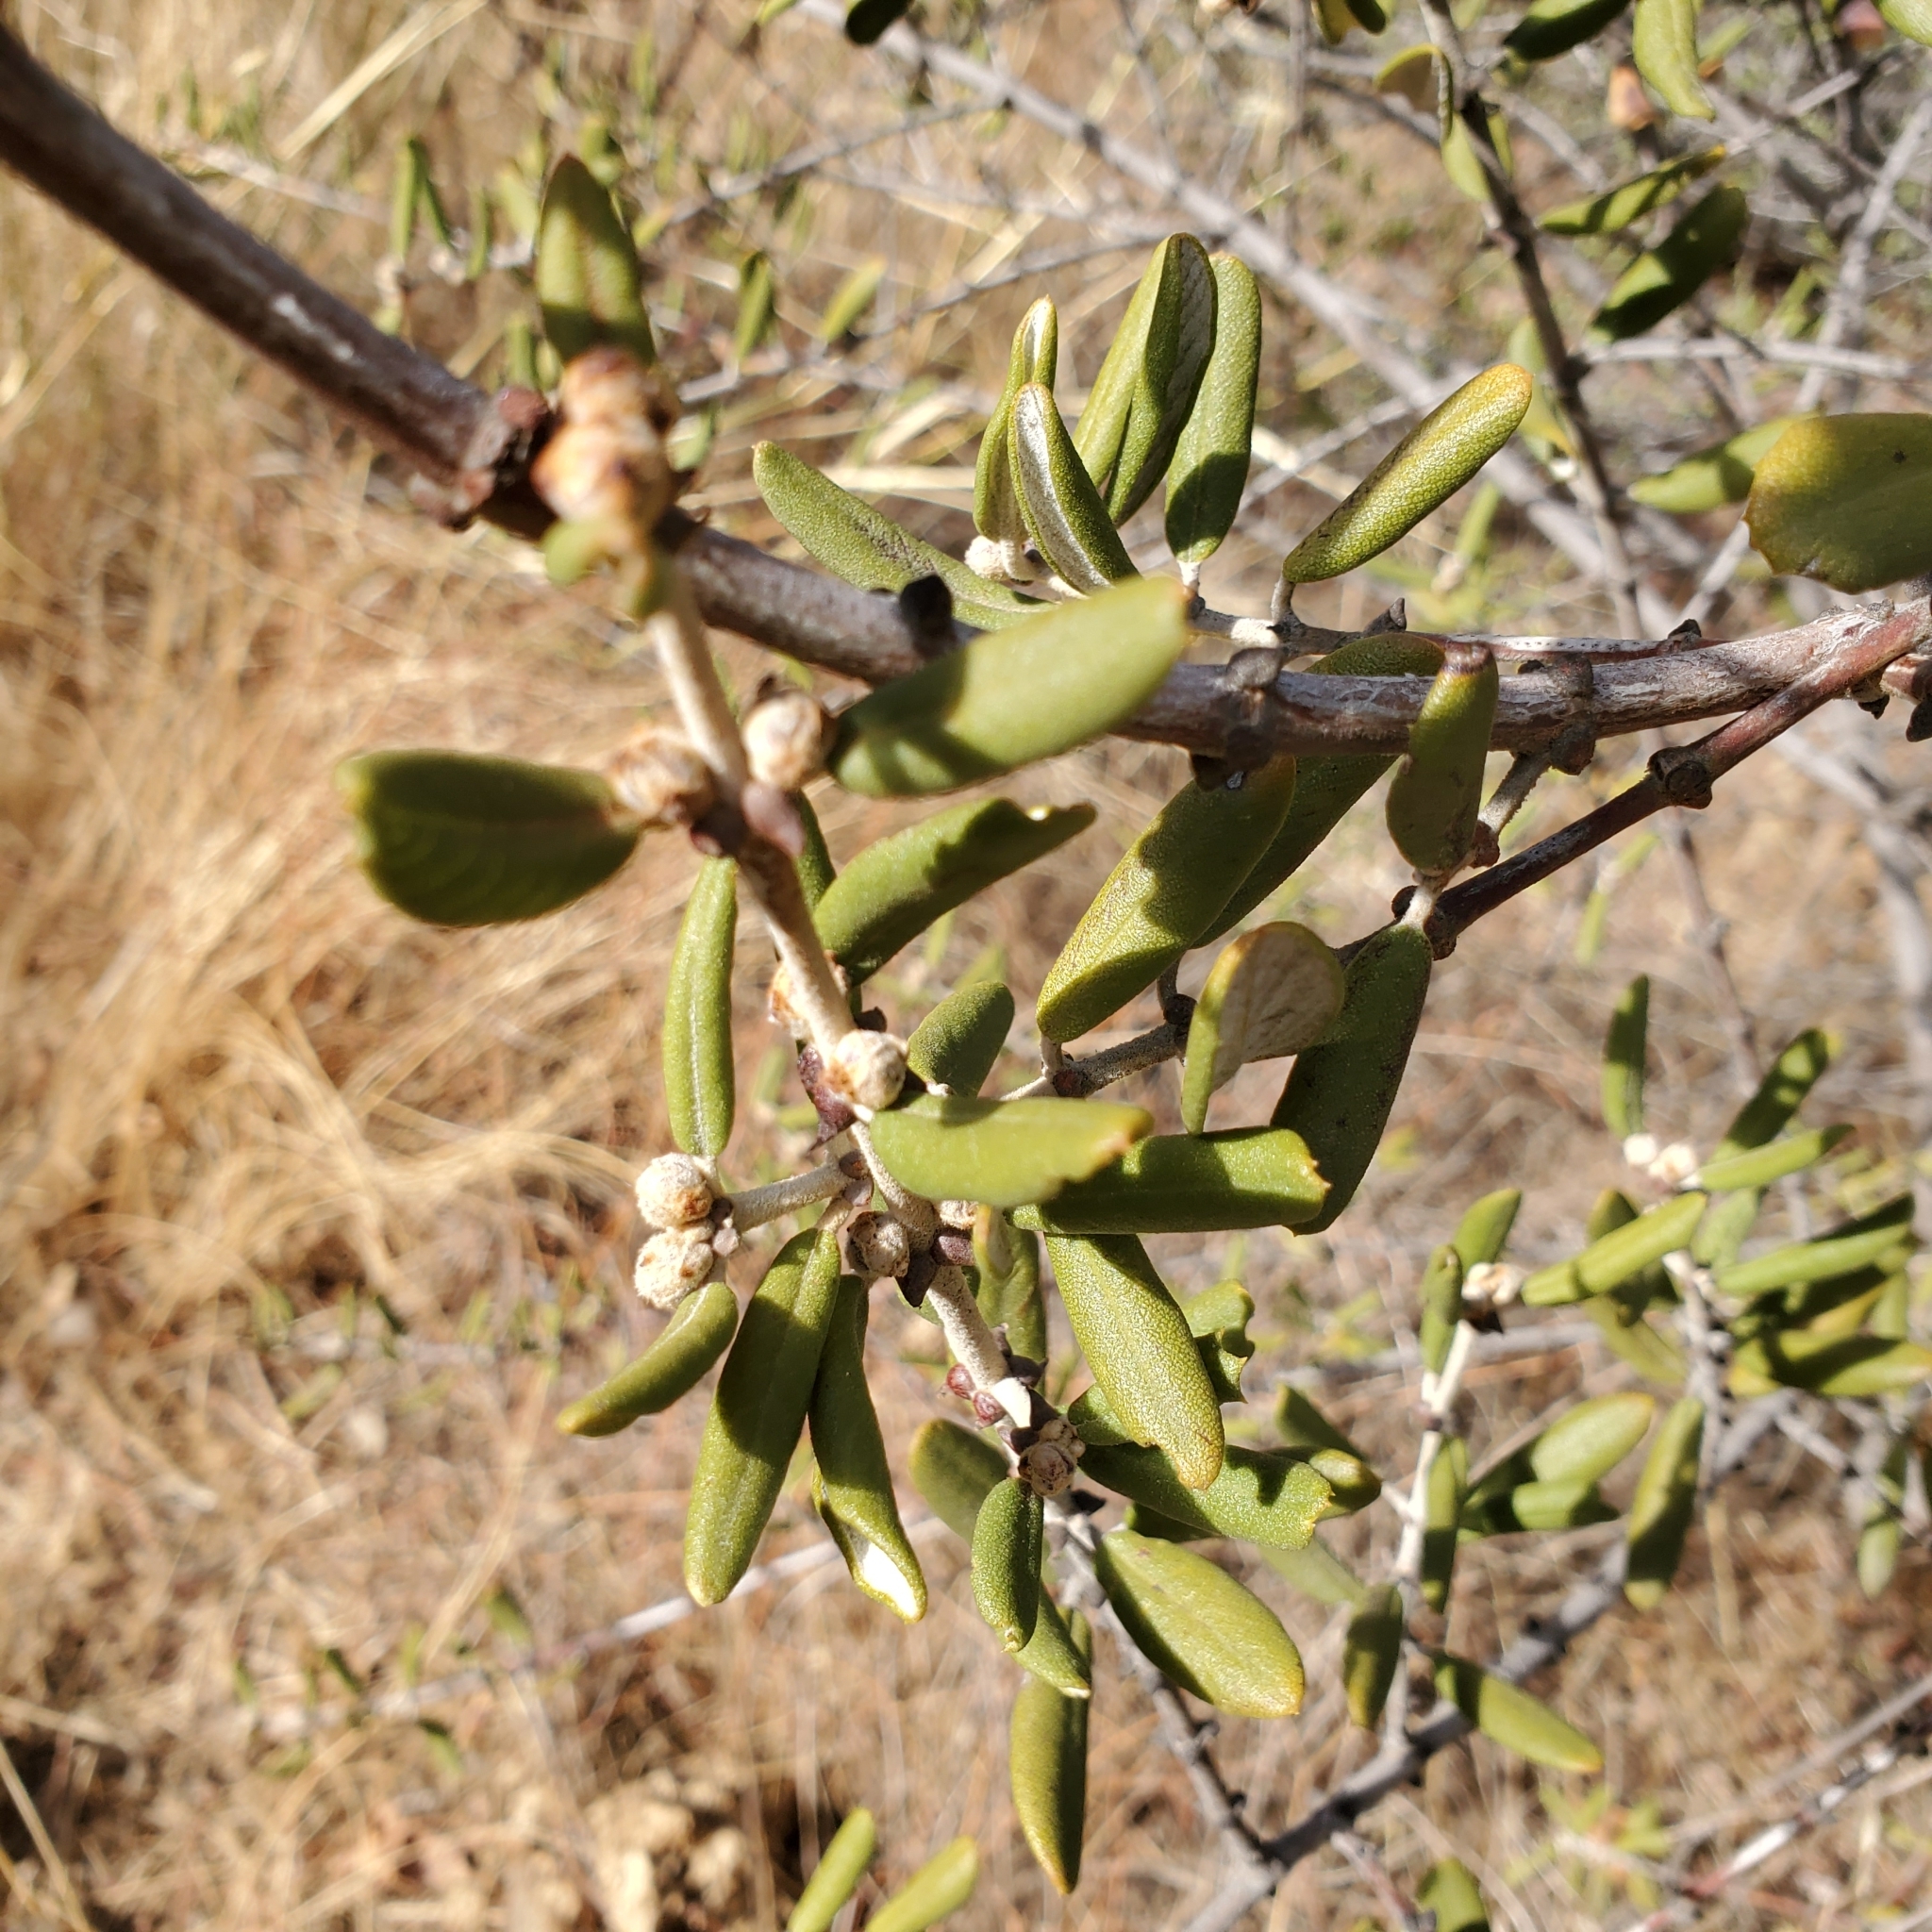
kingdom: Plantae
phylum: Tracheophyta
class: Magnoliopsida
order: Rosales
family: Rhamnaceae
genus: Ceanothus
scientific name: Ceanothus crassifolius
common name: Hoaryleaf ceanothus
